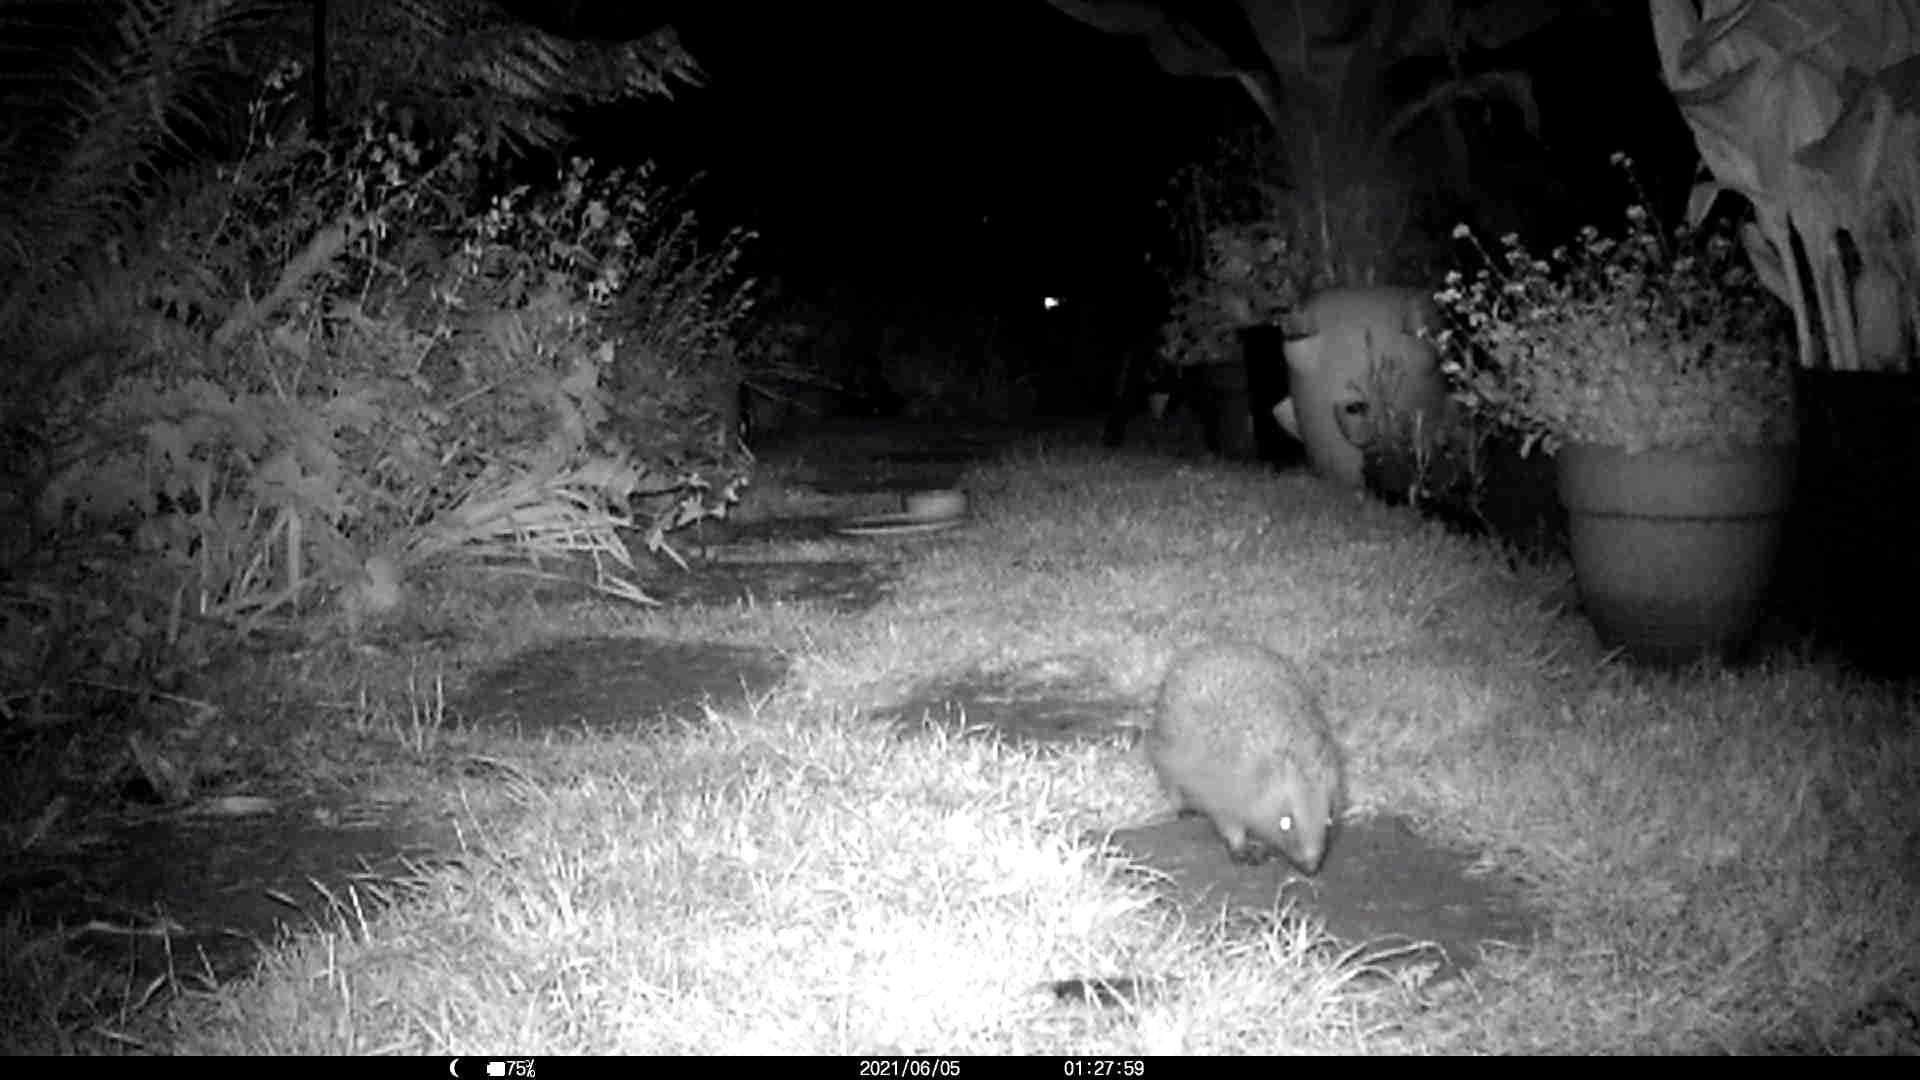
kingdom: Animalia
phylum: Chordata
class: Mammalia
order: Erinaceomorpha
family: Erinaceidae
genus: Erinaceus
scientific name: Erinaceus europaeus
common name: West european hedgehog
